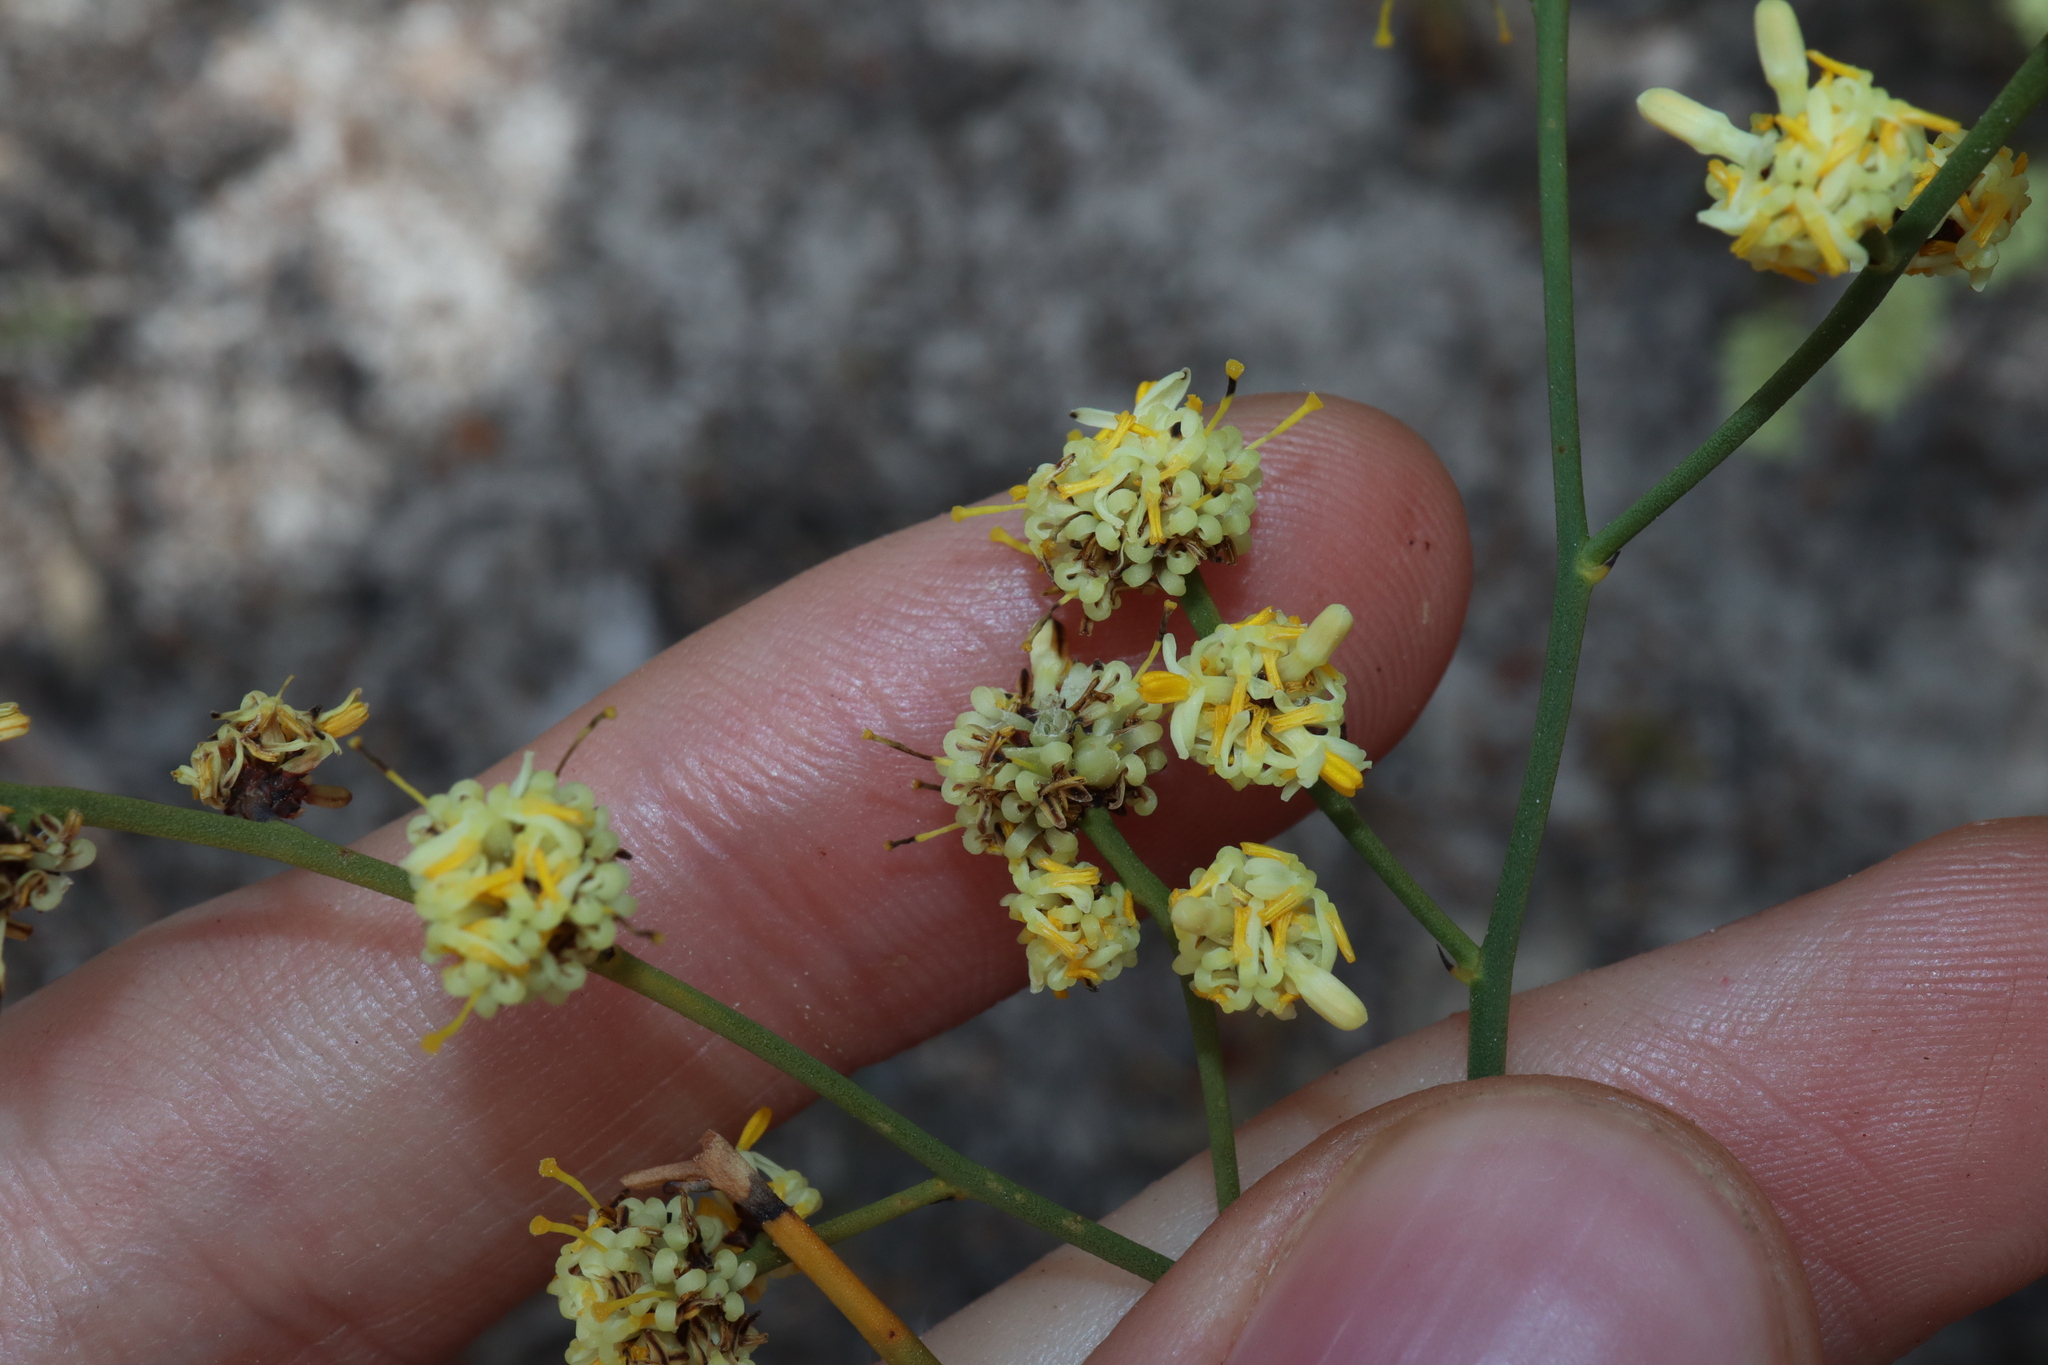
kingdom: Plantae
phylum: Tracheophyta
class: Magnoliopsida
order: Proteales
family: Proteaceae
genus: Stirlingia
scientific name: Stirlingia anethifolia
